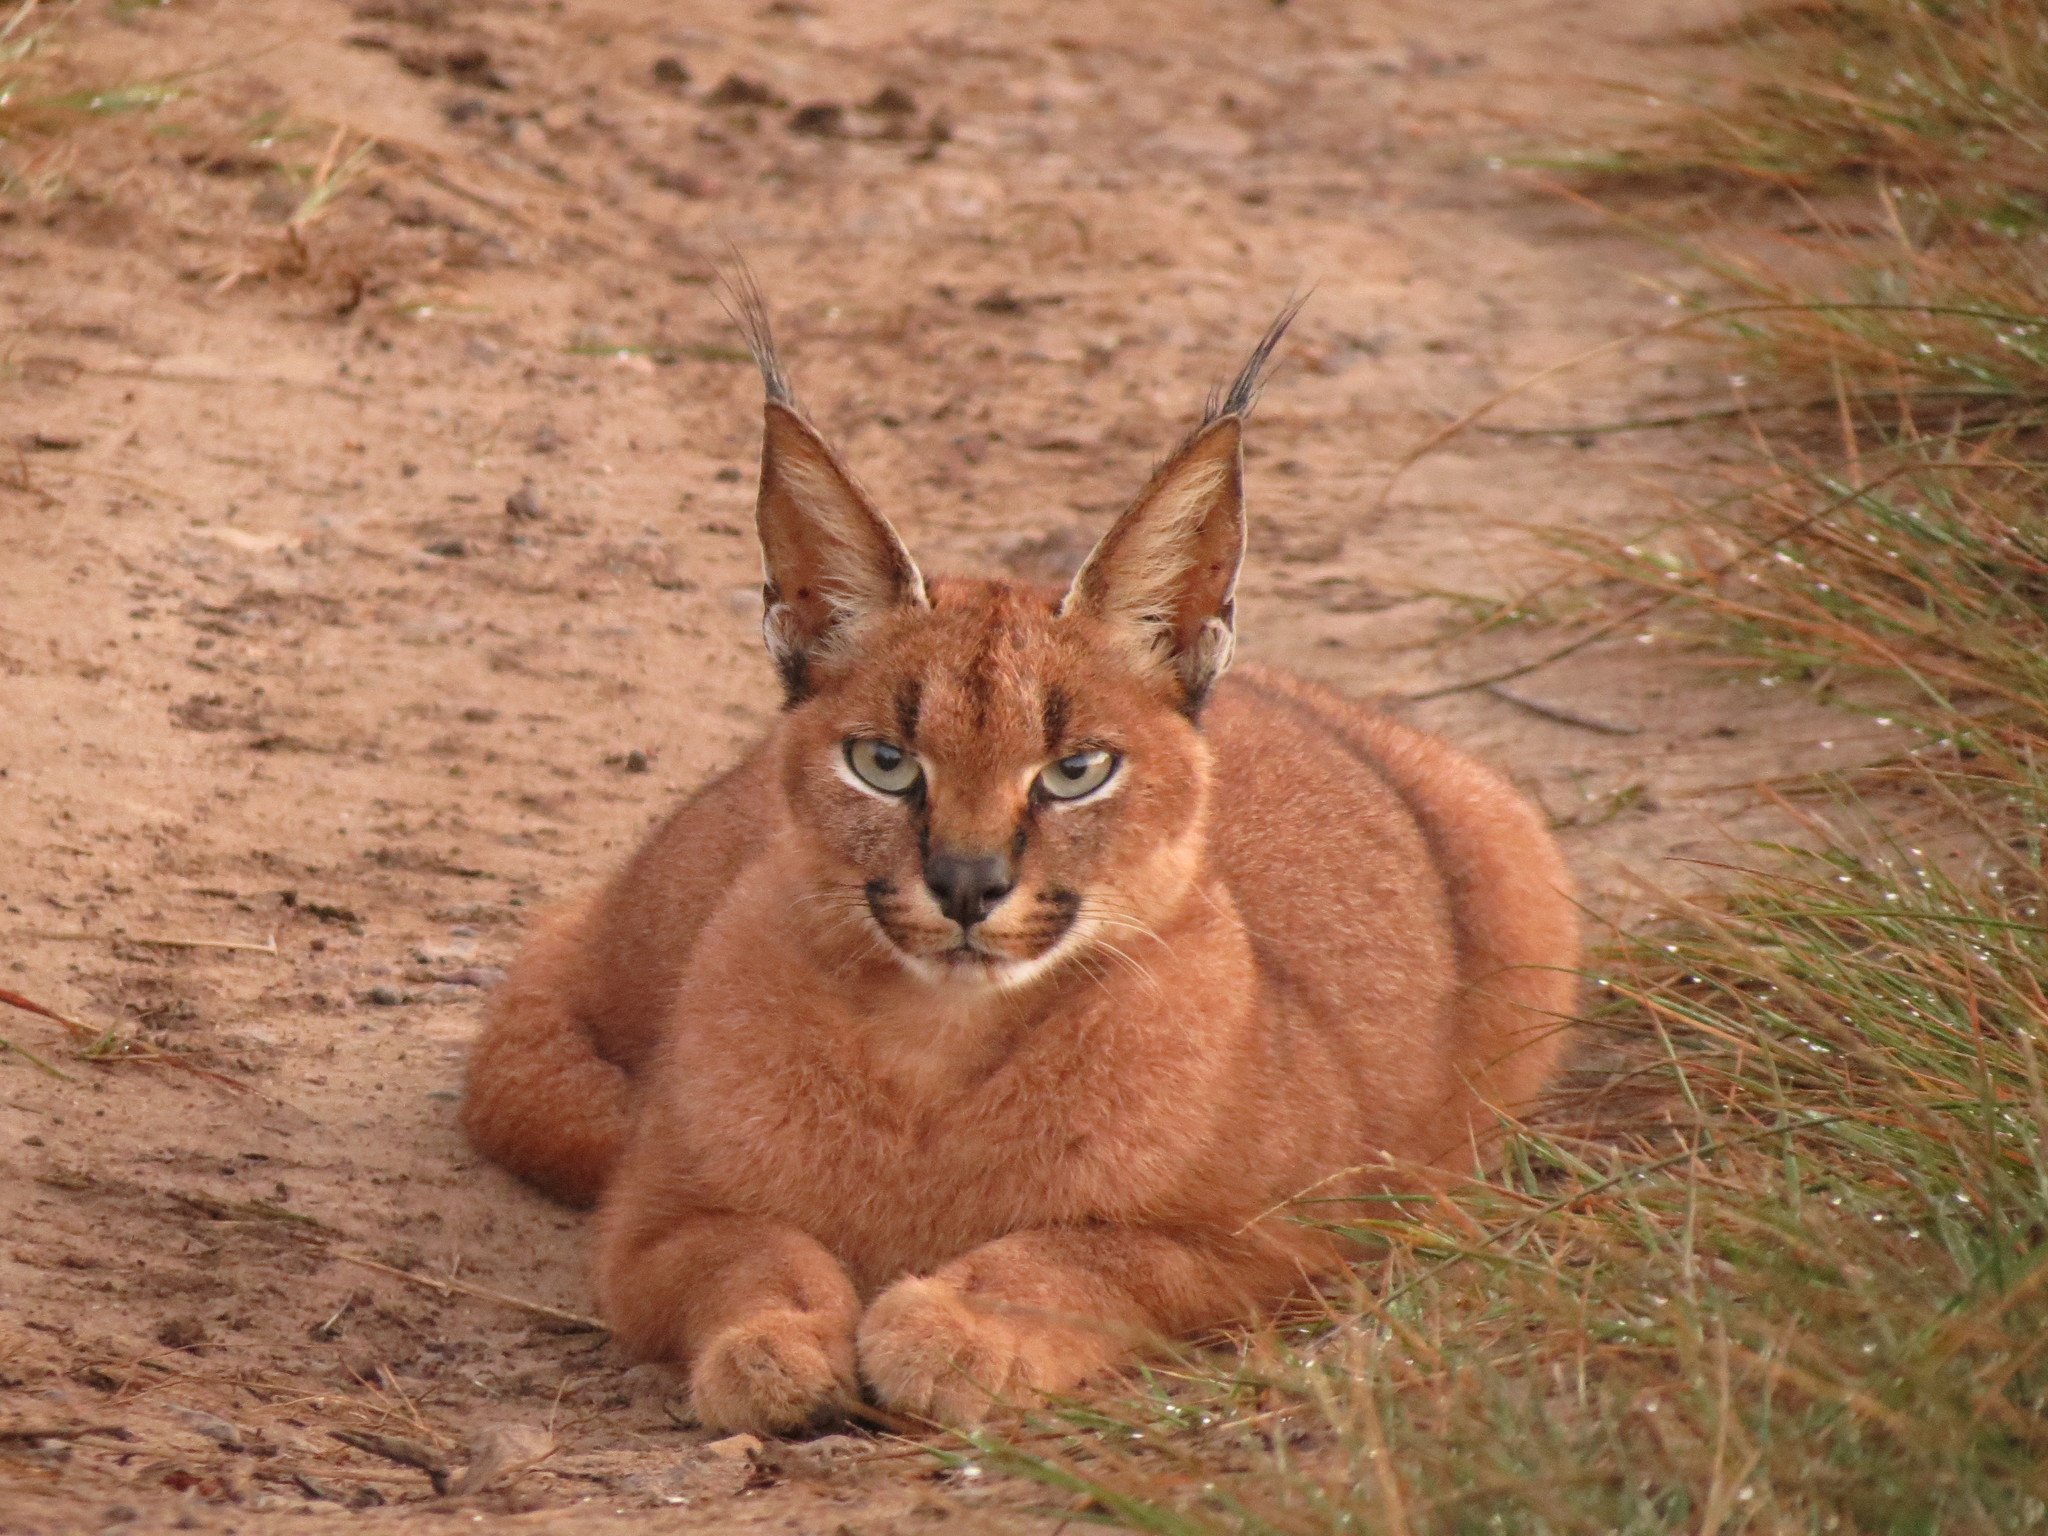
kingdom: Animalia
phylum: Chordata
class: Mammalia
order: Carnivora
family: Felidae
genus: Caracal
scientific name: Caracal caracal
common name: Caracal
